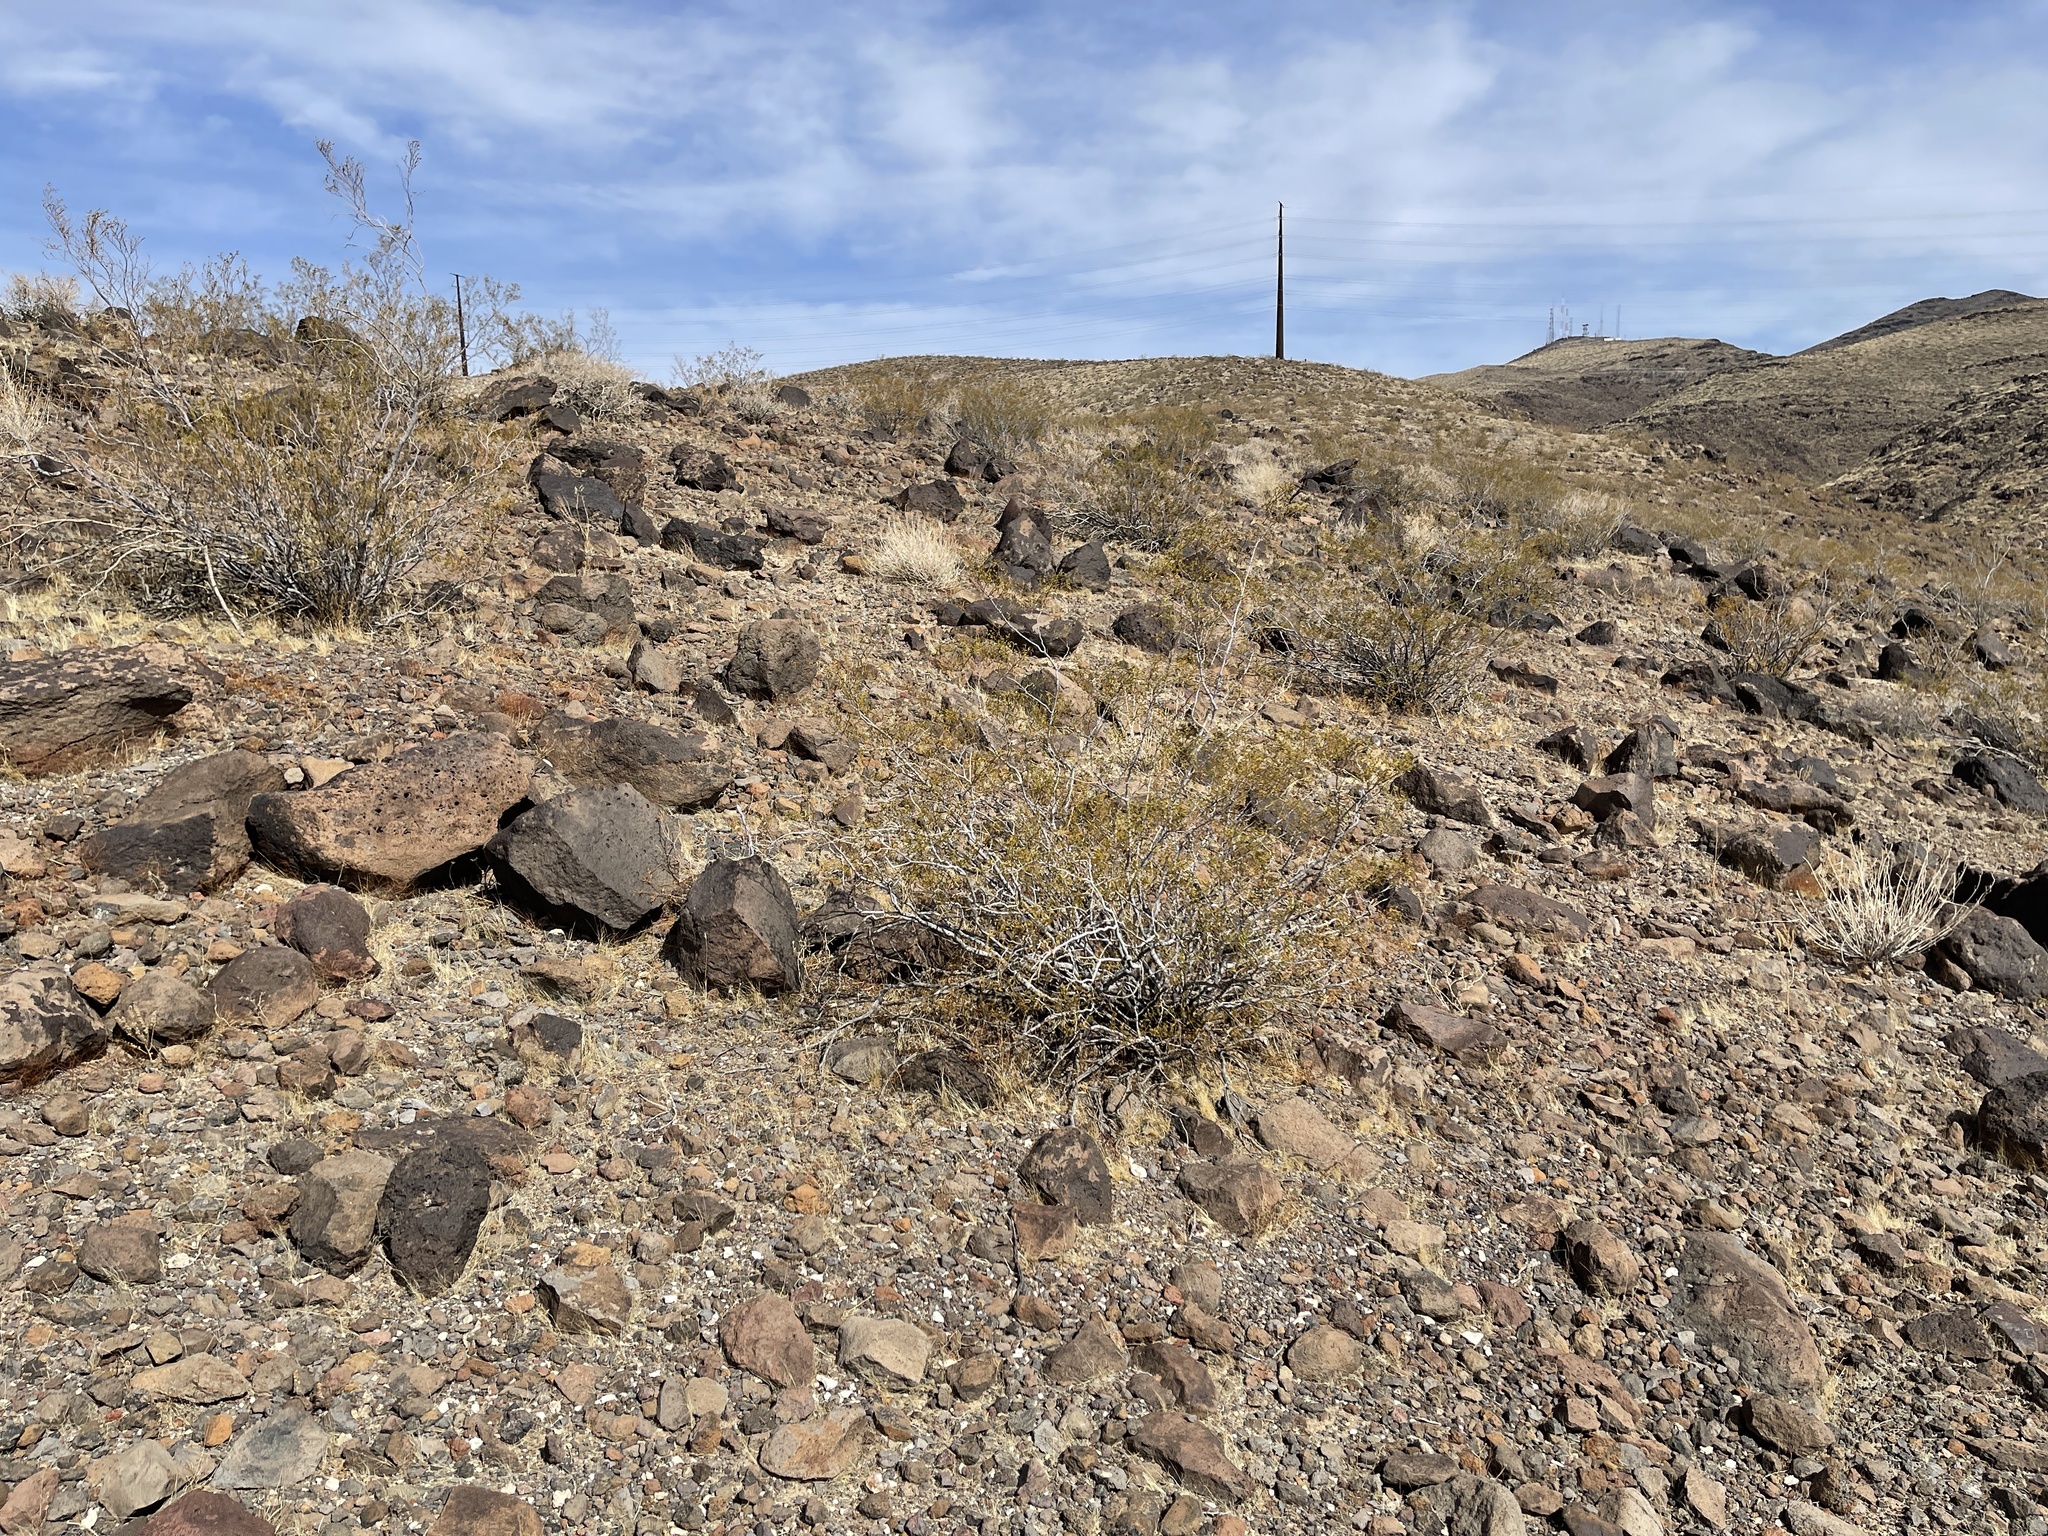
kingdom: Plantae
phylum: Tracheophyta
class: Magnoliopsida
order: Zygophyllales
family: Zygophyllaceae
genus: Larrea
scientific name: Larrea tridentata
